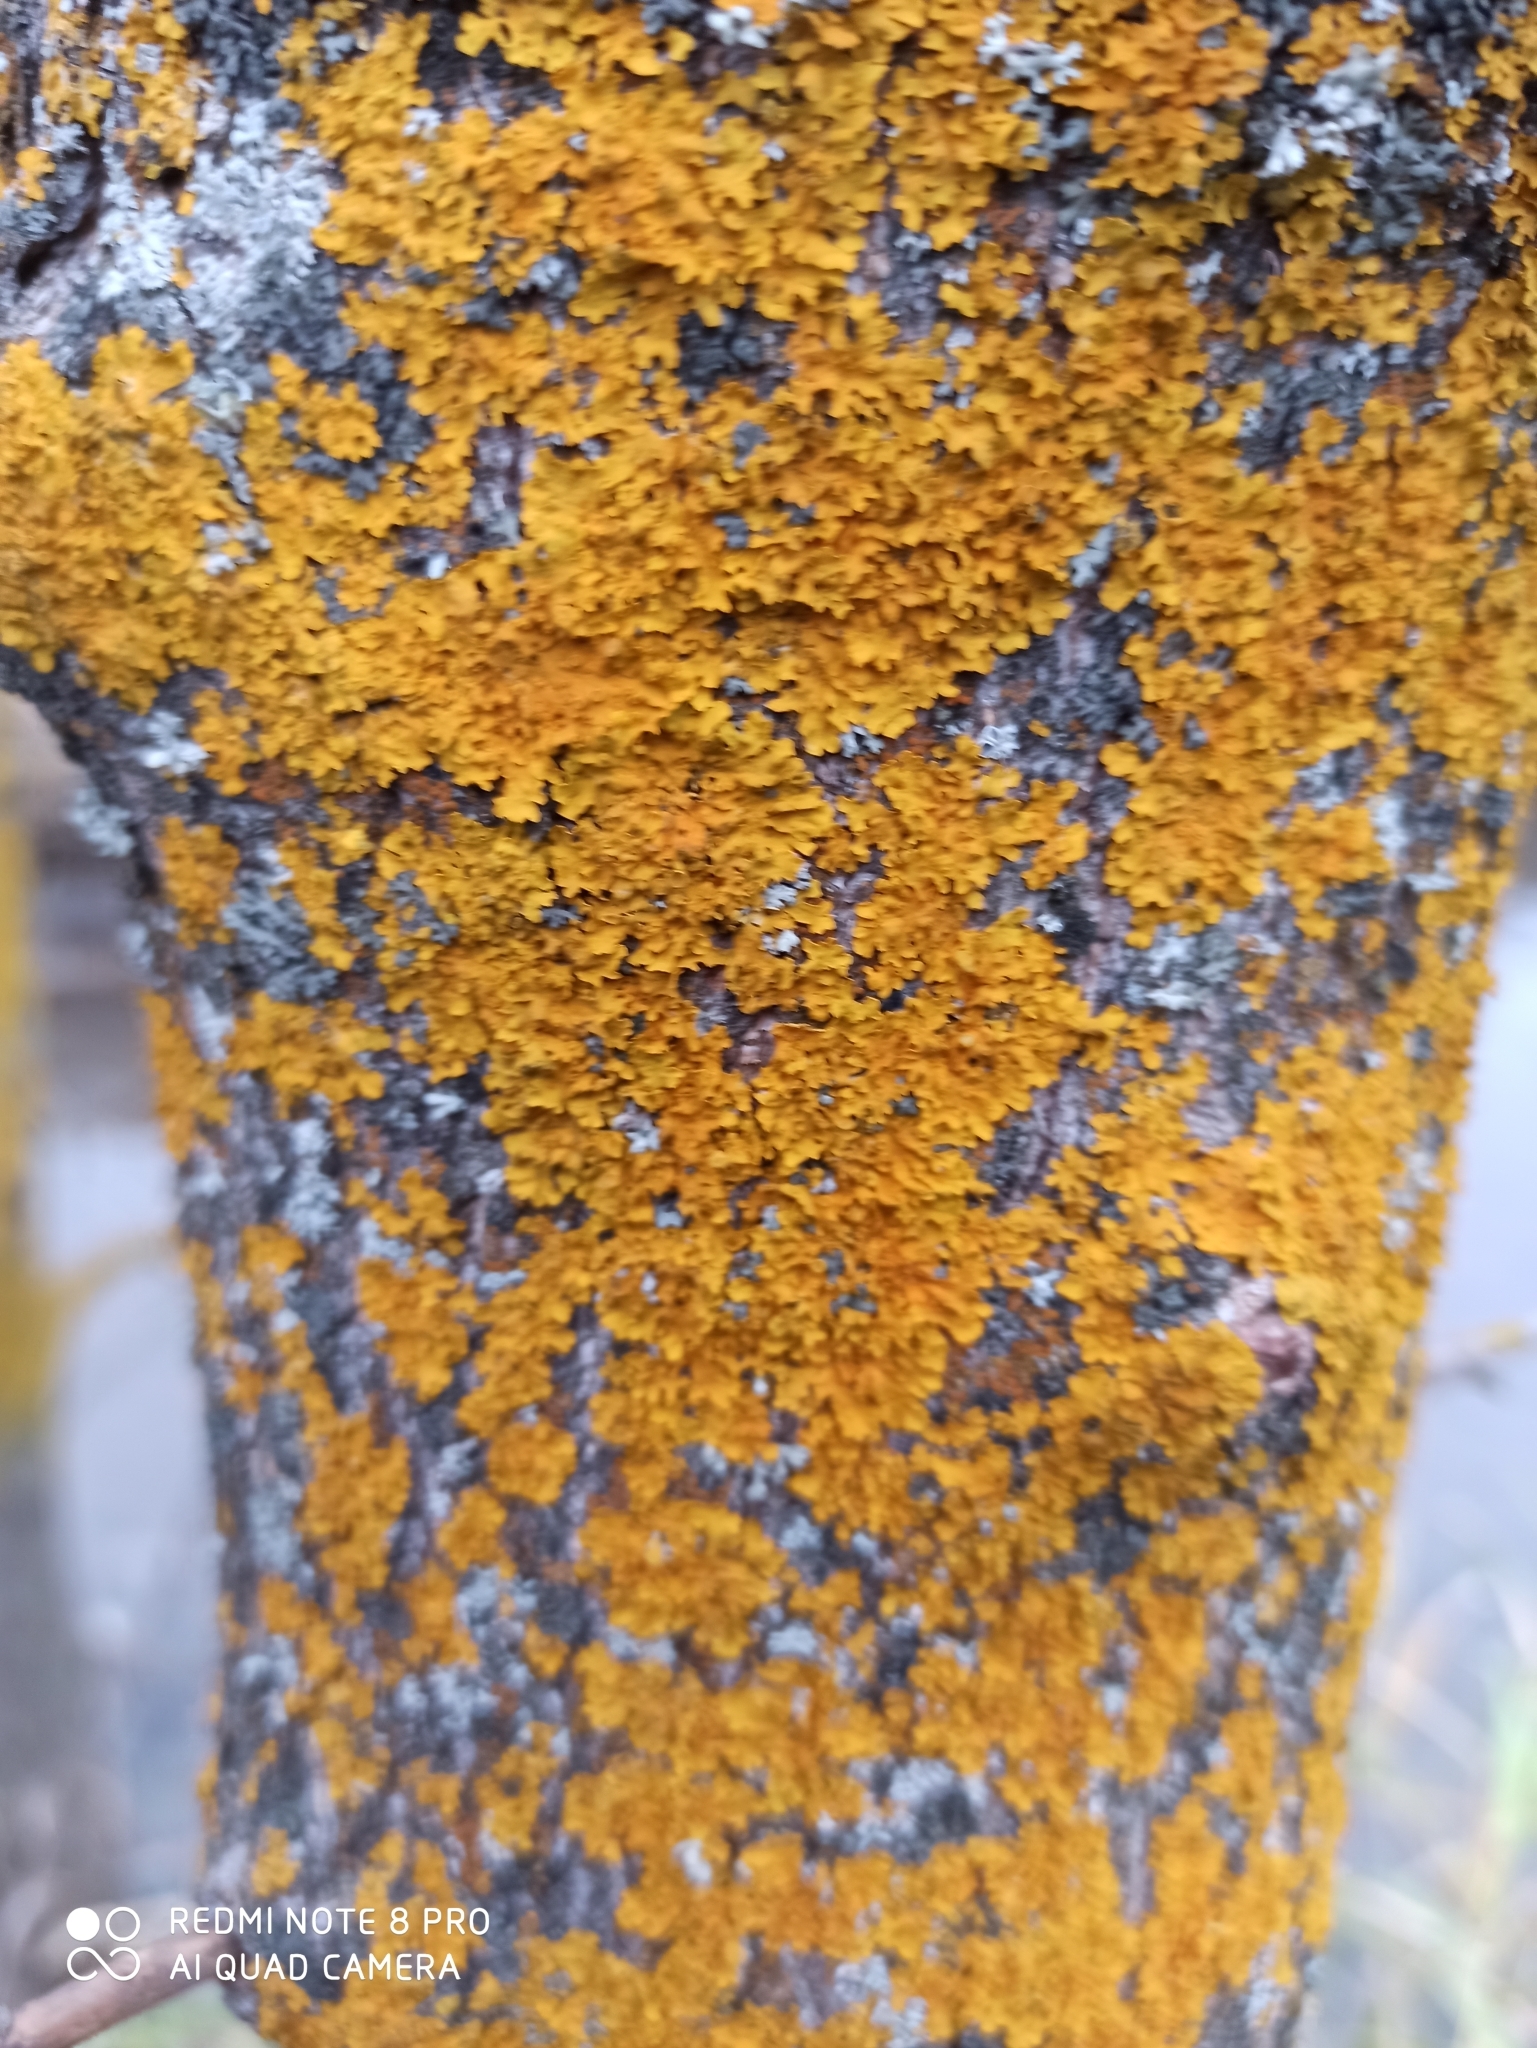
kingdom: Fungi
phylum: Ascomycota
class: Lecanoromycetes
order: Teloschistales
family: Teloschistaceae
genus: Xanthoria
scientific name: Xanthoria parietina
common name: Common orange lichen
